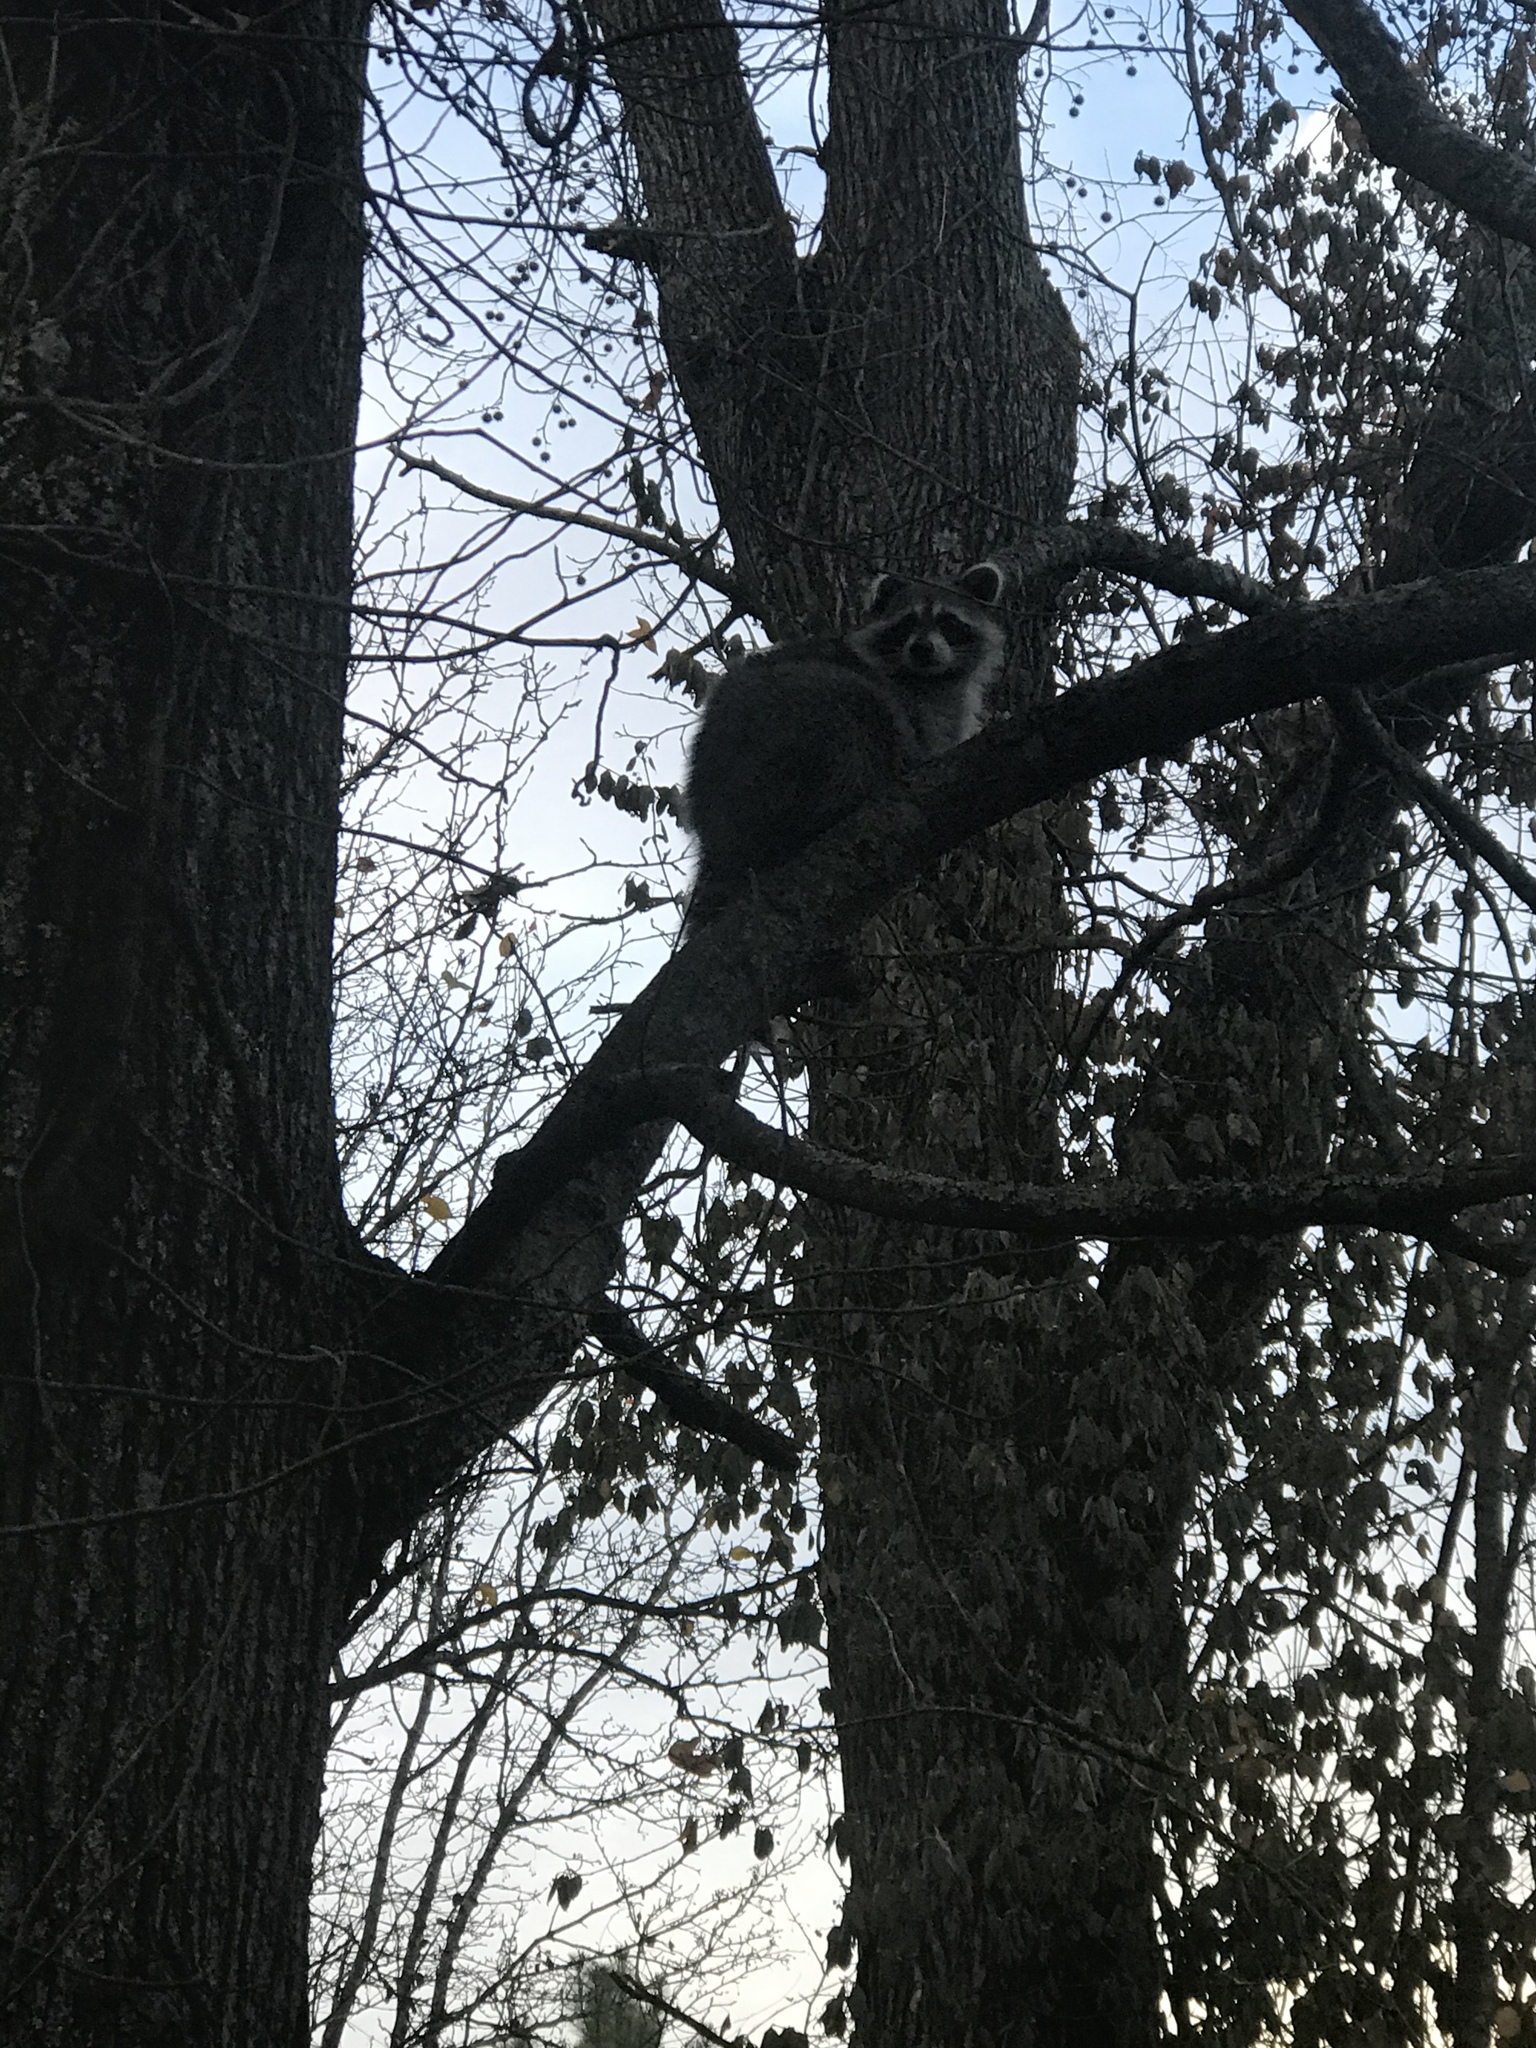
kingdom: Animalia
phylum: Chordata
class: Mammalia
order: Carnivora
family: Procyonidae
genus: Procyon
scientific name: Procyon lotor
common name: Raccoon
